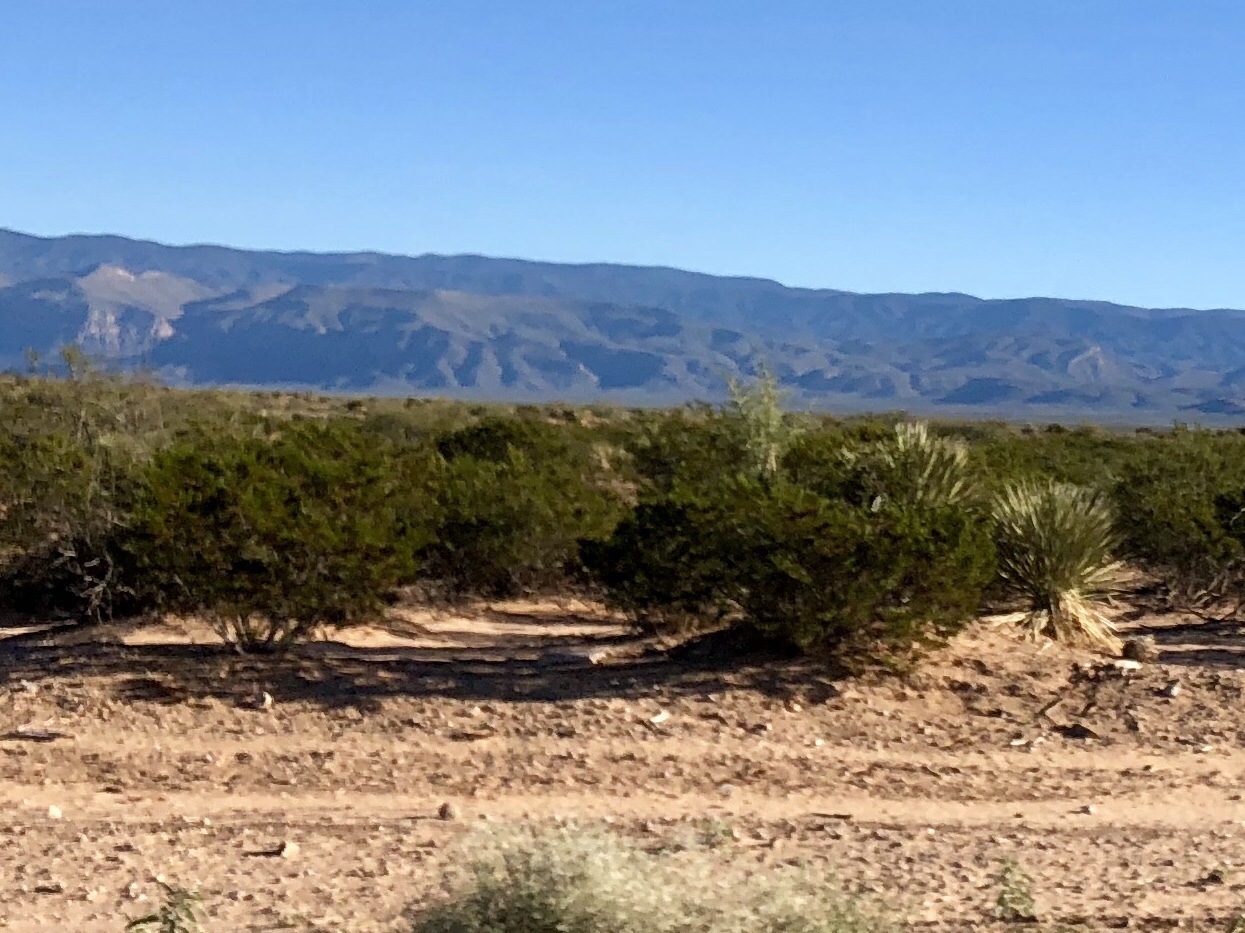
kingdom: Plantae
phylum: Tracheophyta
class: Magnoliopsida
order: Zygophyllales
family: Zygophyllaceae
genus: Larrea
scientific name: Larrea tridentata
